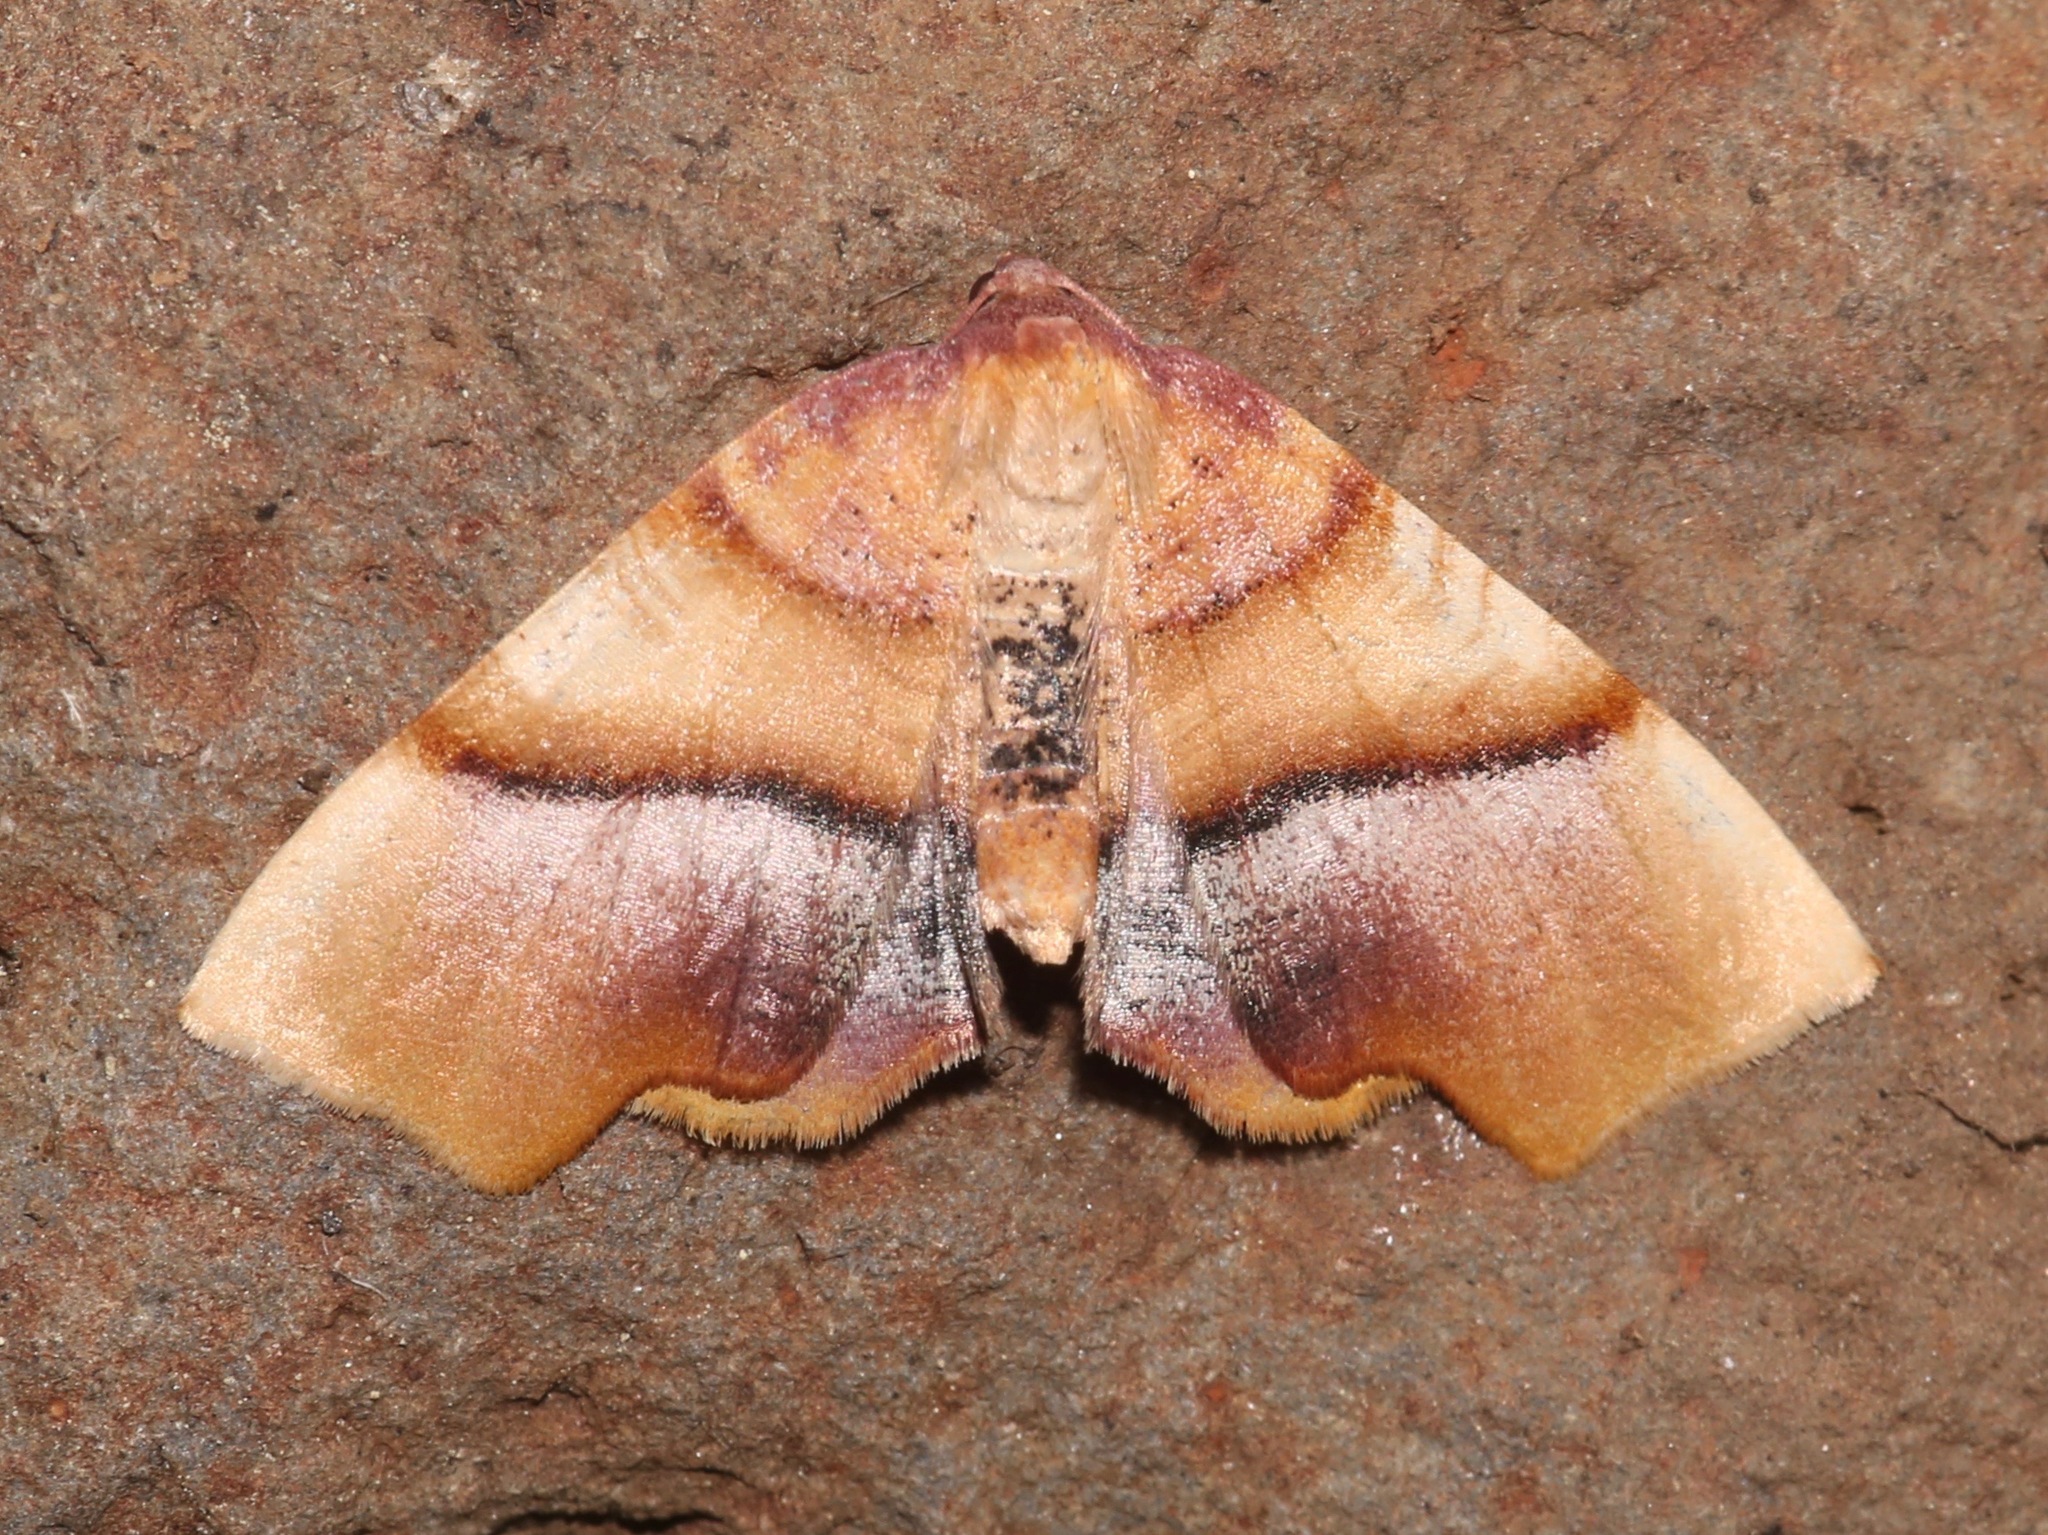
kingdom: Animalia
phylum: Arthropoda
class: Insecta
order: Lepidoptera
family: Geometridae
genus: Plagodis
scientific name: Plagodis phlogosaria
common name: Straight-lined plagodis
